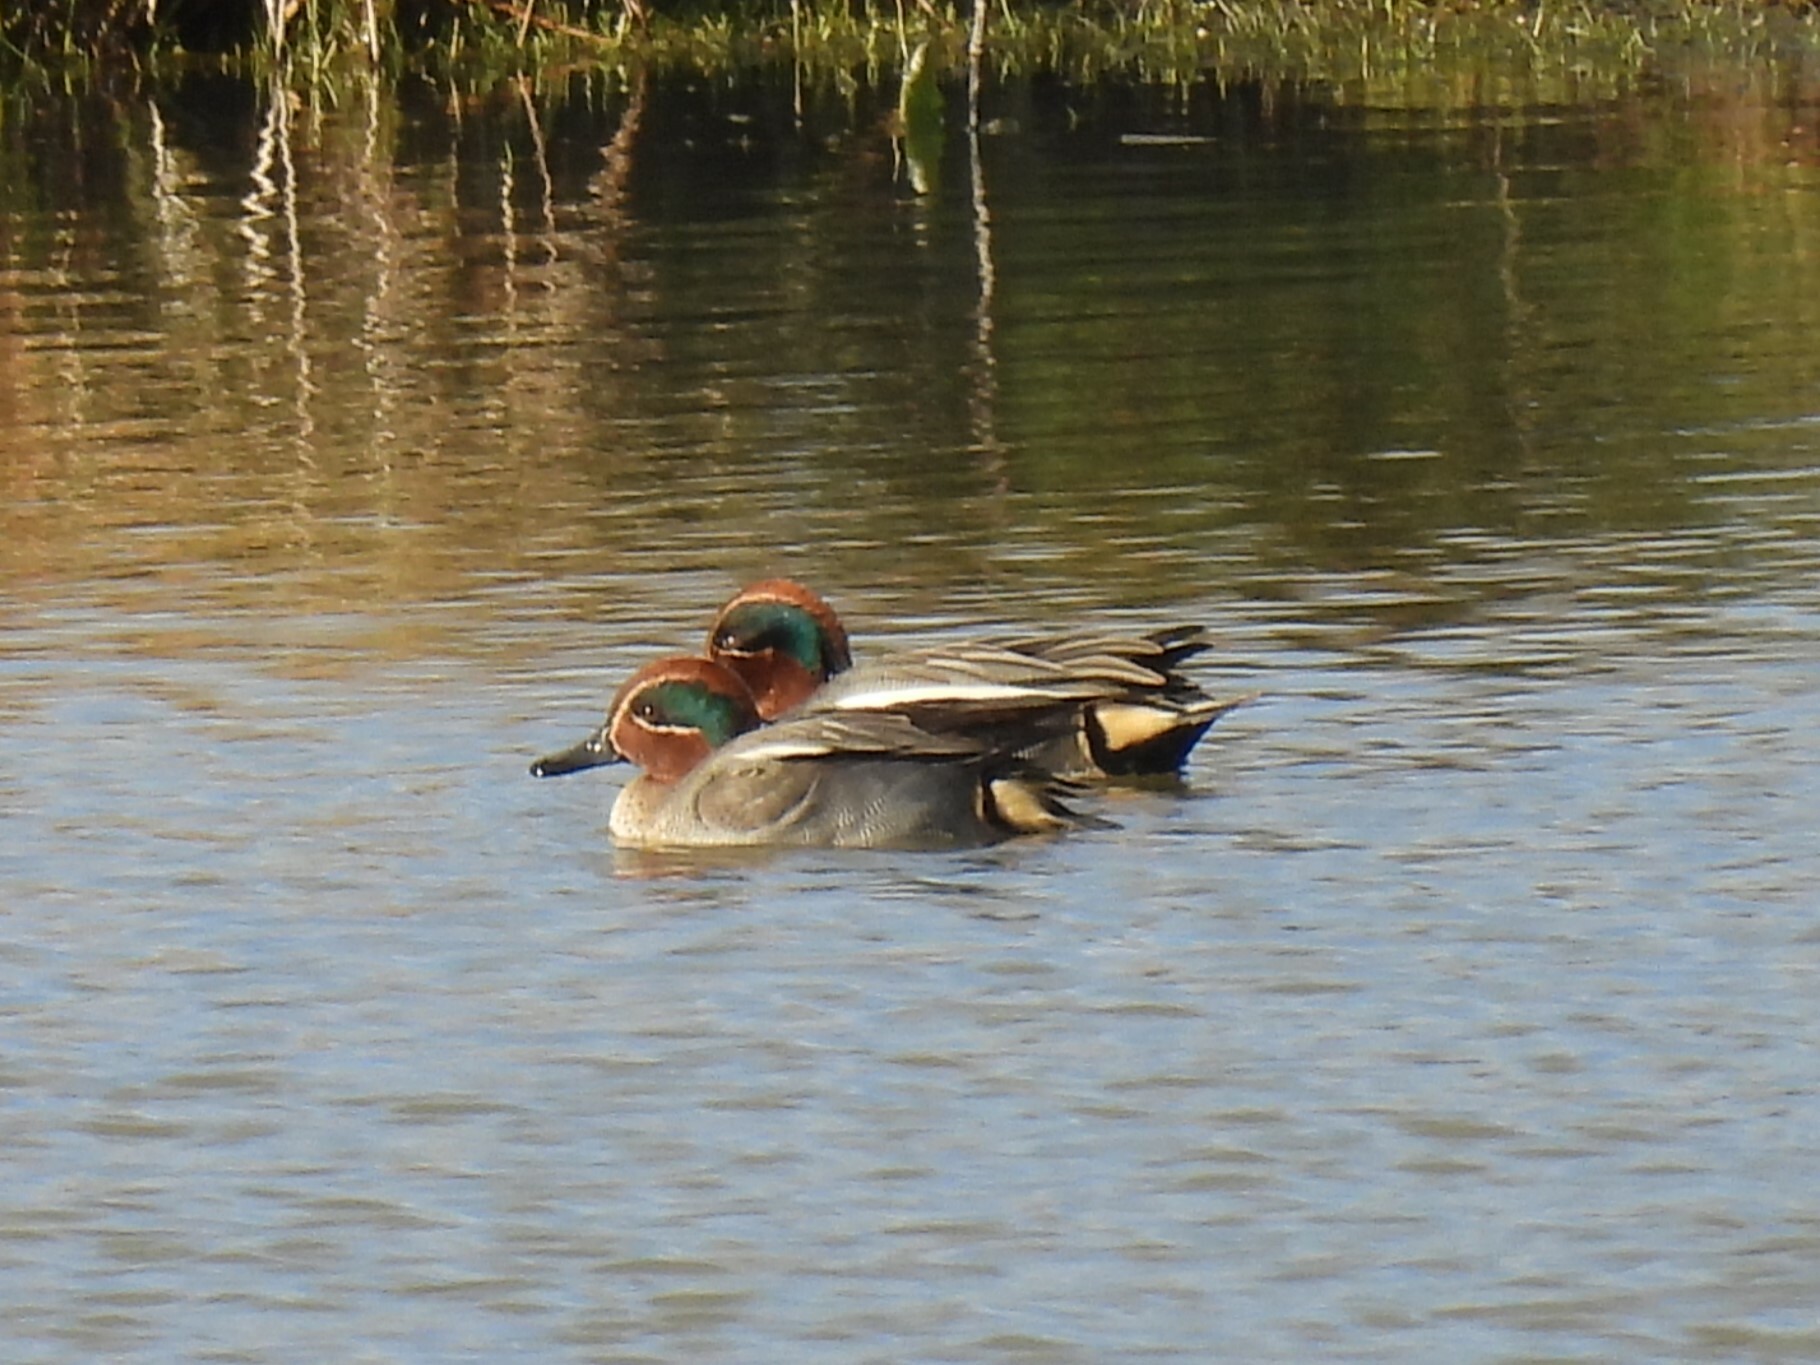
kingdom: Animalia
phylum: Chordata
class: Aves
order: Anseriformes
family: Anatidae
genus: Anas
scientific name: Anas crecca
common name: Eurasian teal
